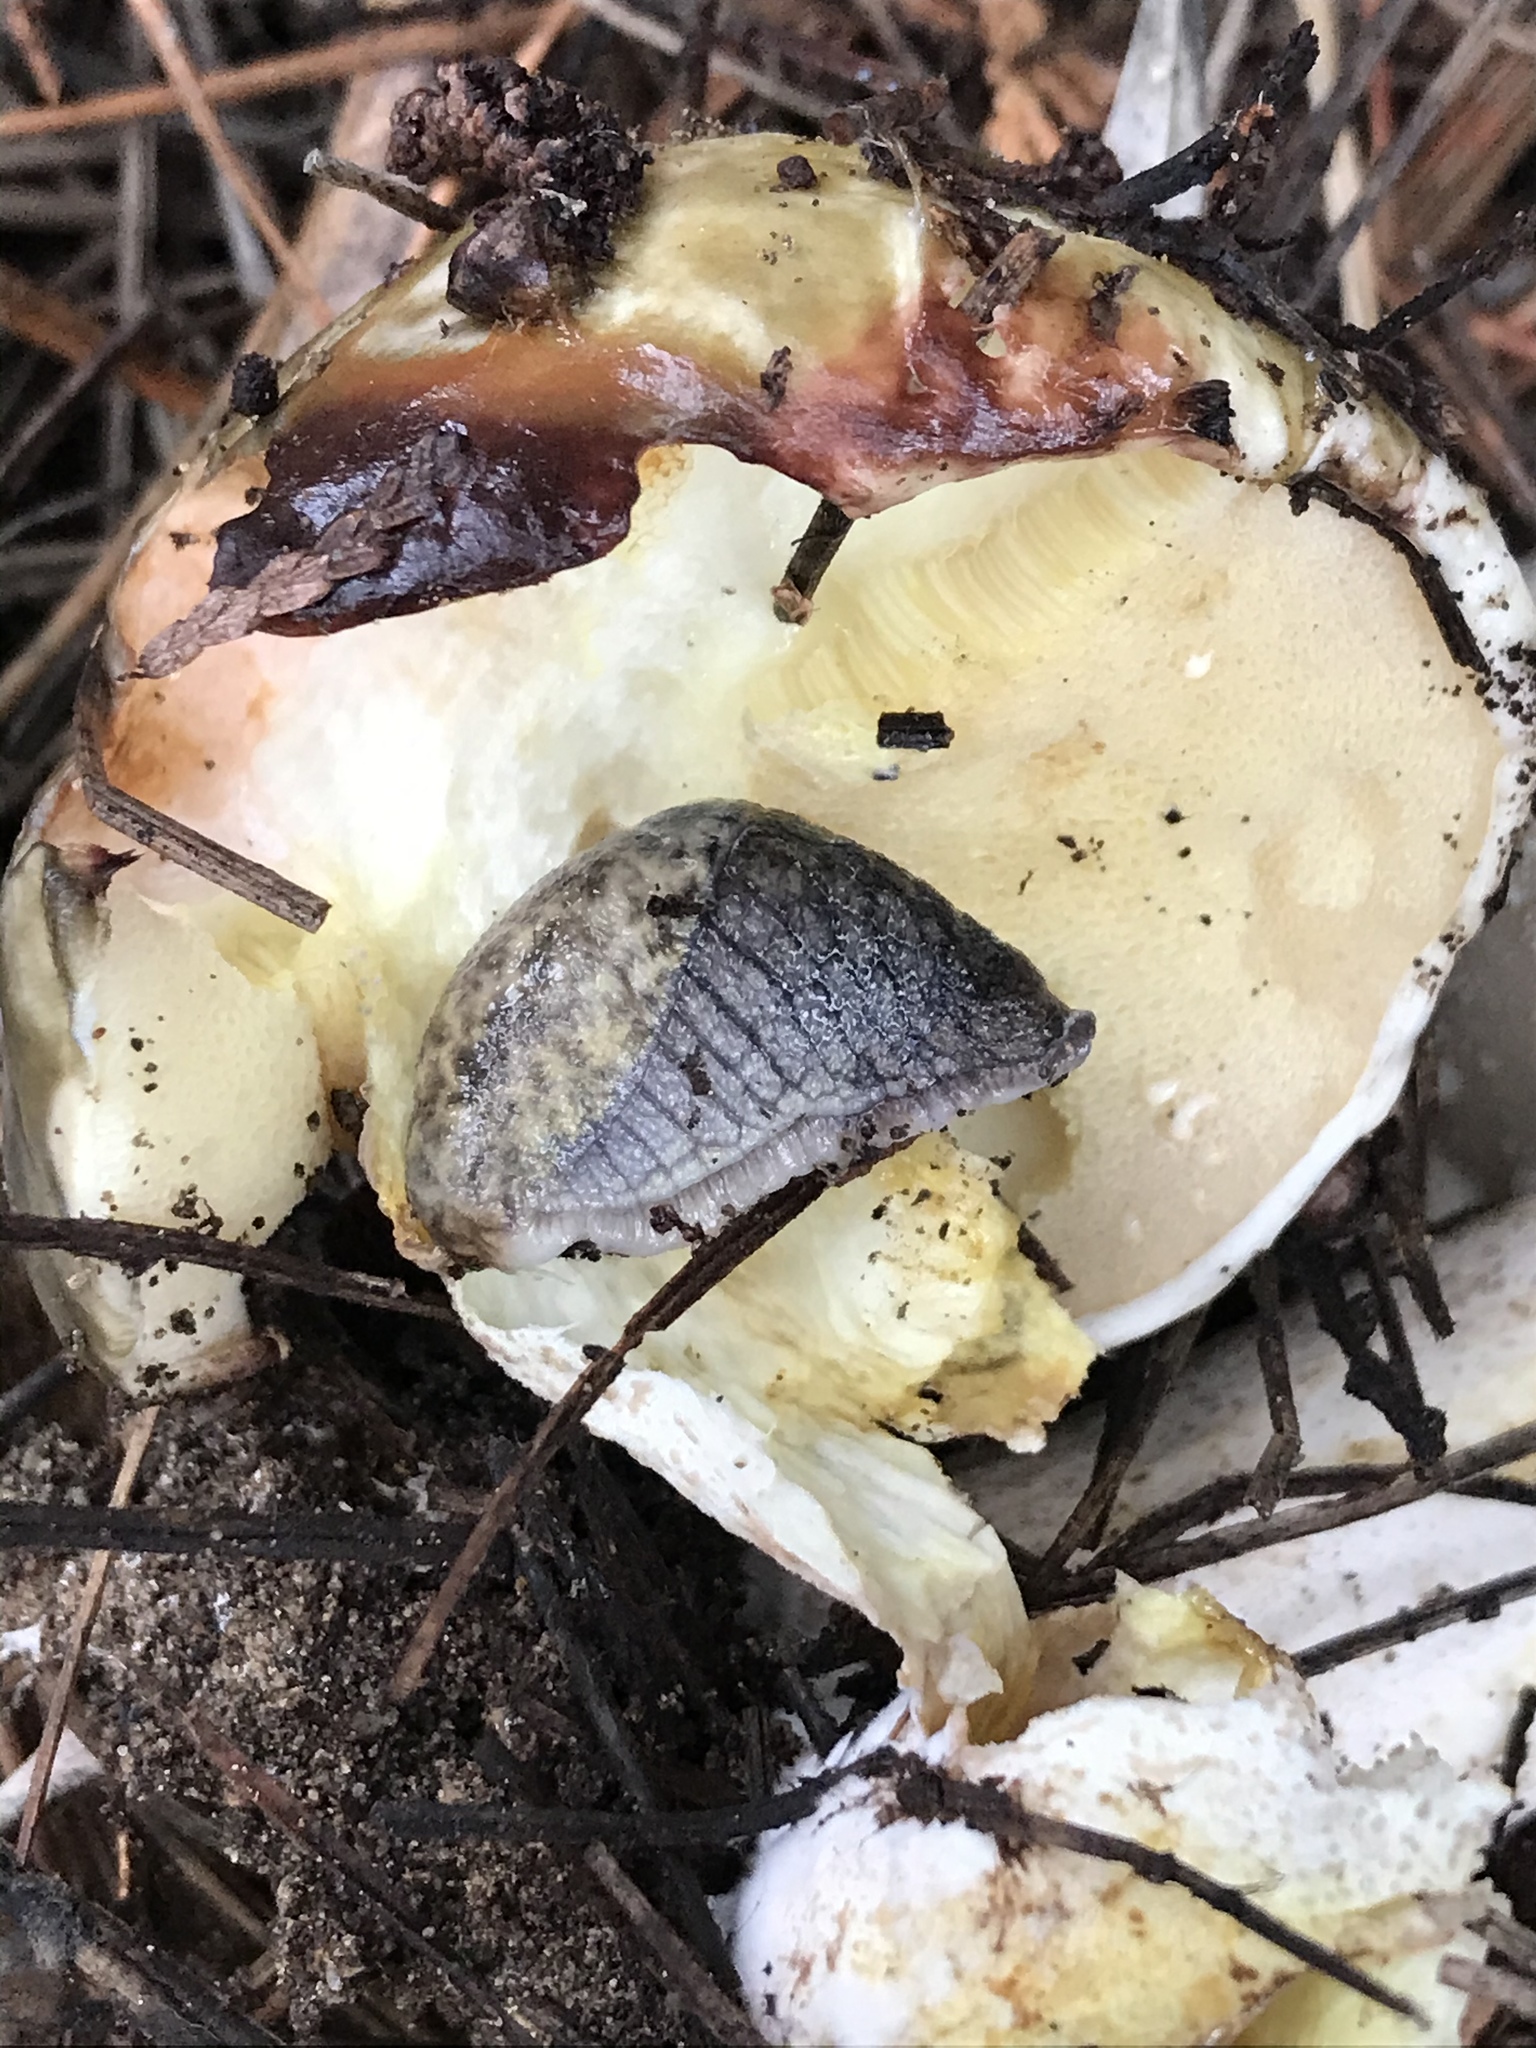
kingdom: Animalia
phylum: Mollusca
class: Gastropoda
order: Stylommatophora
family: Ariolimacidae
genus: Prophysaon
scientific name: Prophysaon andersonii
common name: Reticulate taildropper
